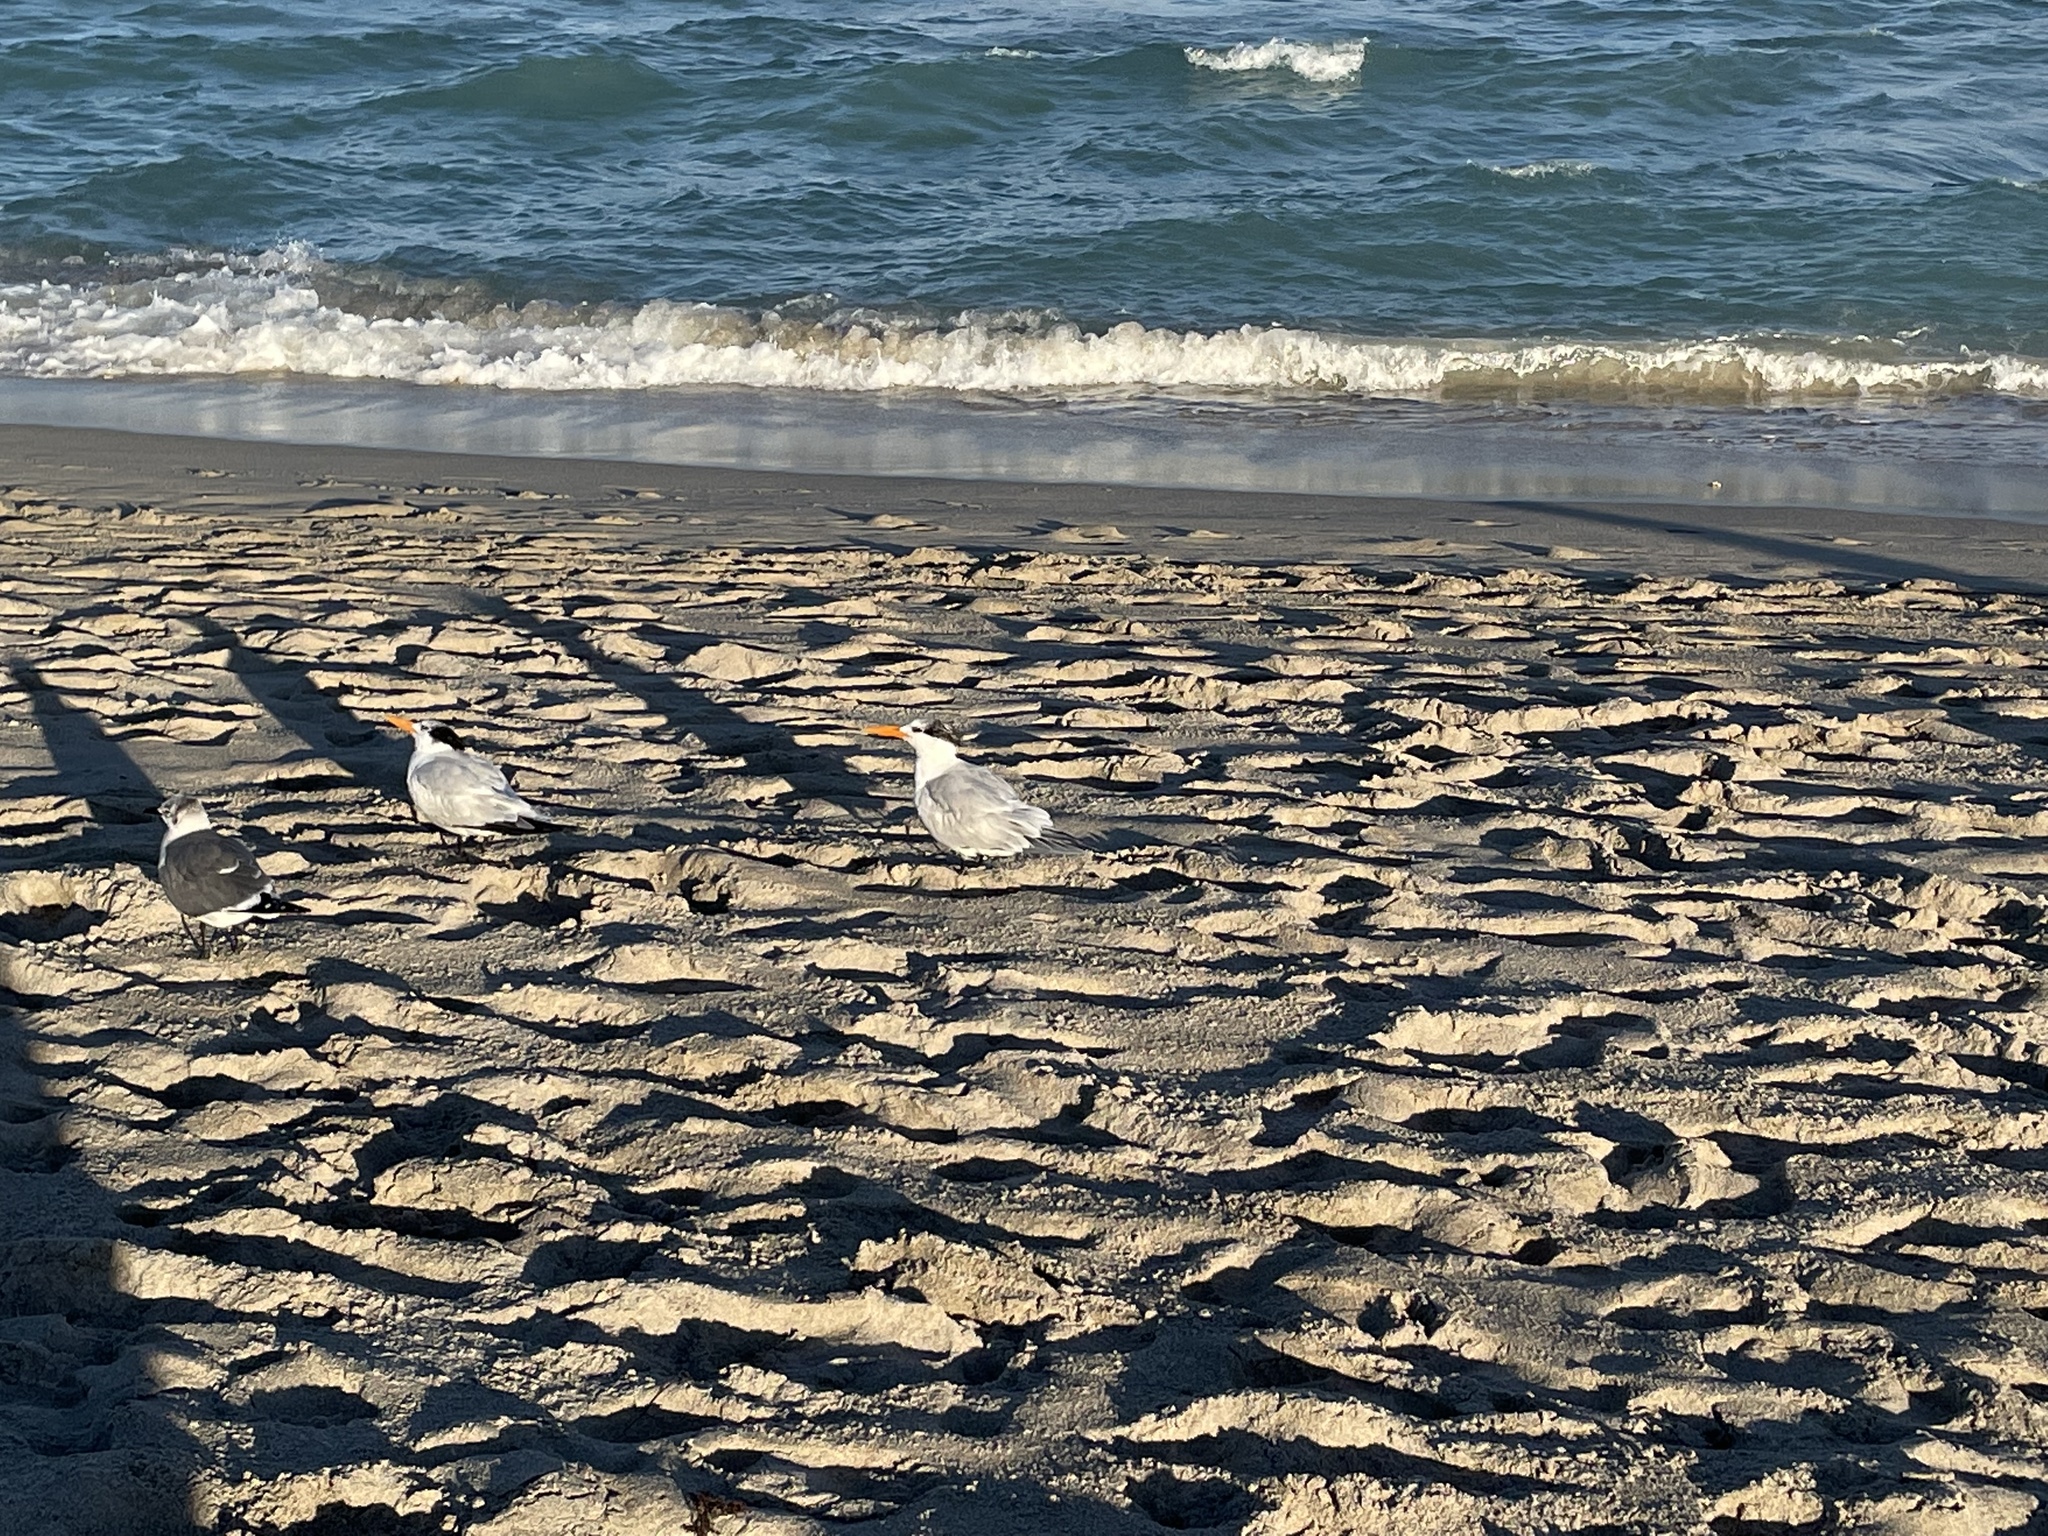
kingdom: Animalia
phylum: Chordata
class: Aves
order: Charadriiformes
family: Laridae
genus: Thalasseus
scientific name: Thalasseus maximus
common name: Royal tern
